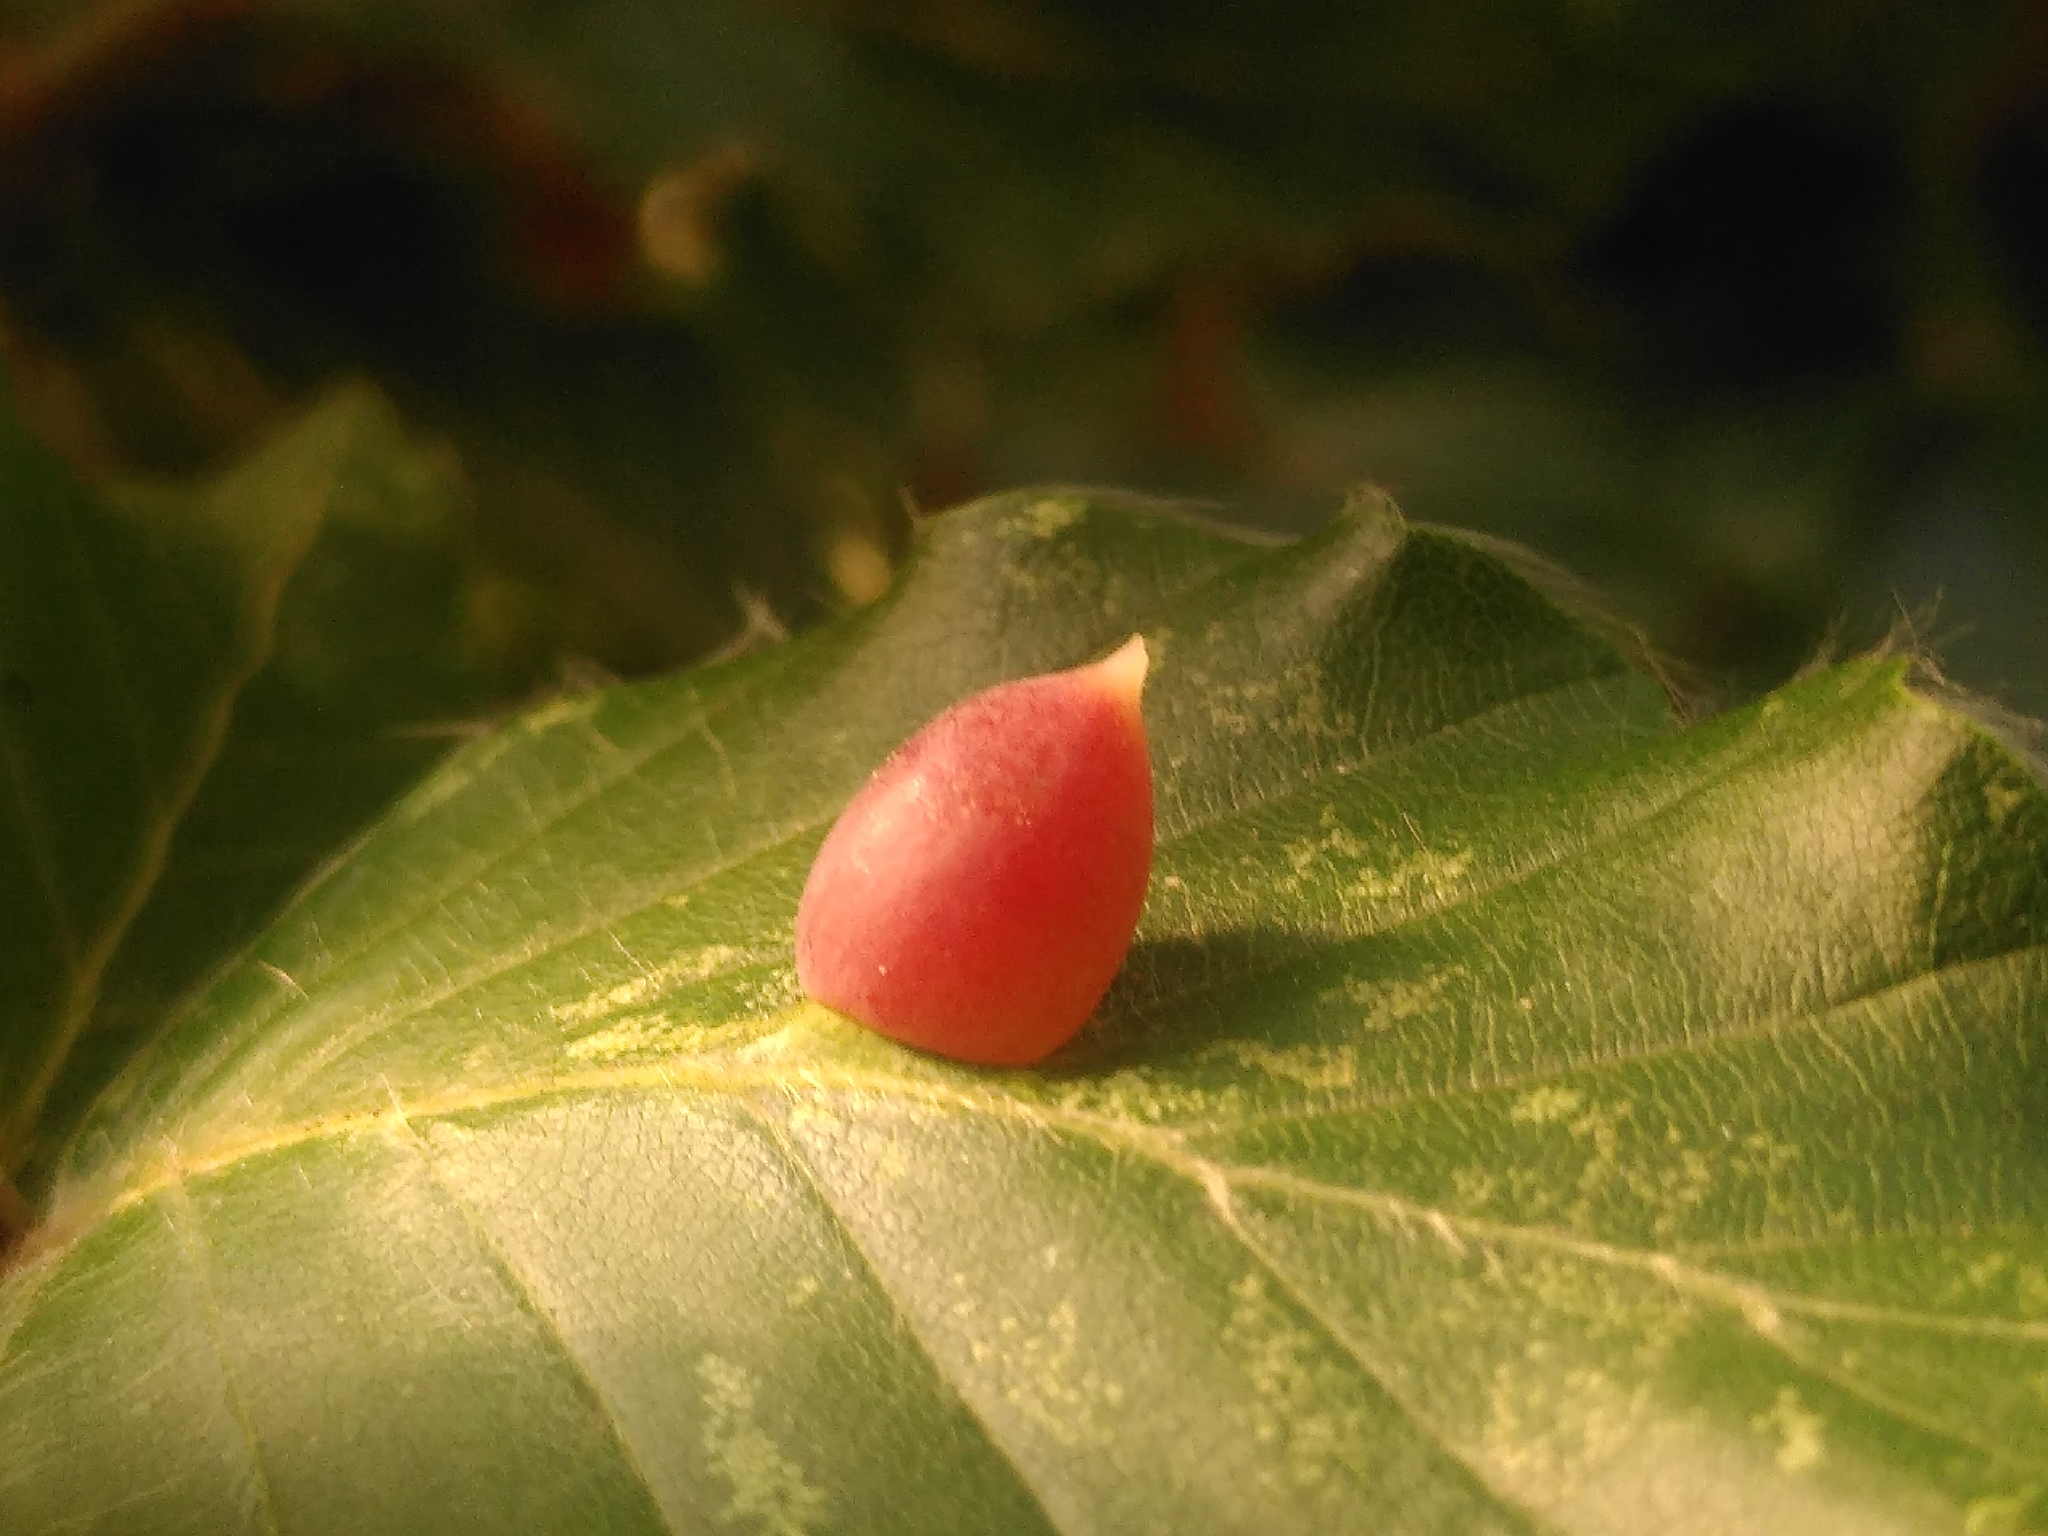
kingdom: Animalia
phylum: Arthropoda
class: Insecta
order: Diptera
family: Cecidomyiidae
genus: Mikiola
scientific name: Mikiola fagi
